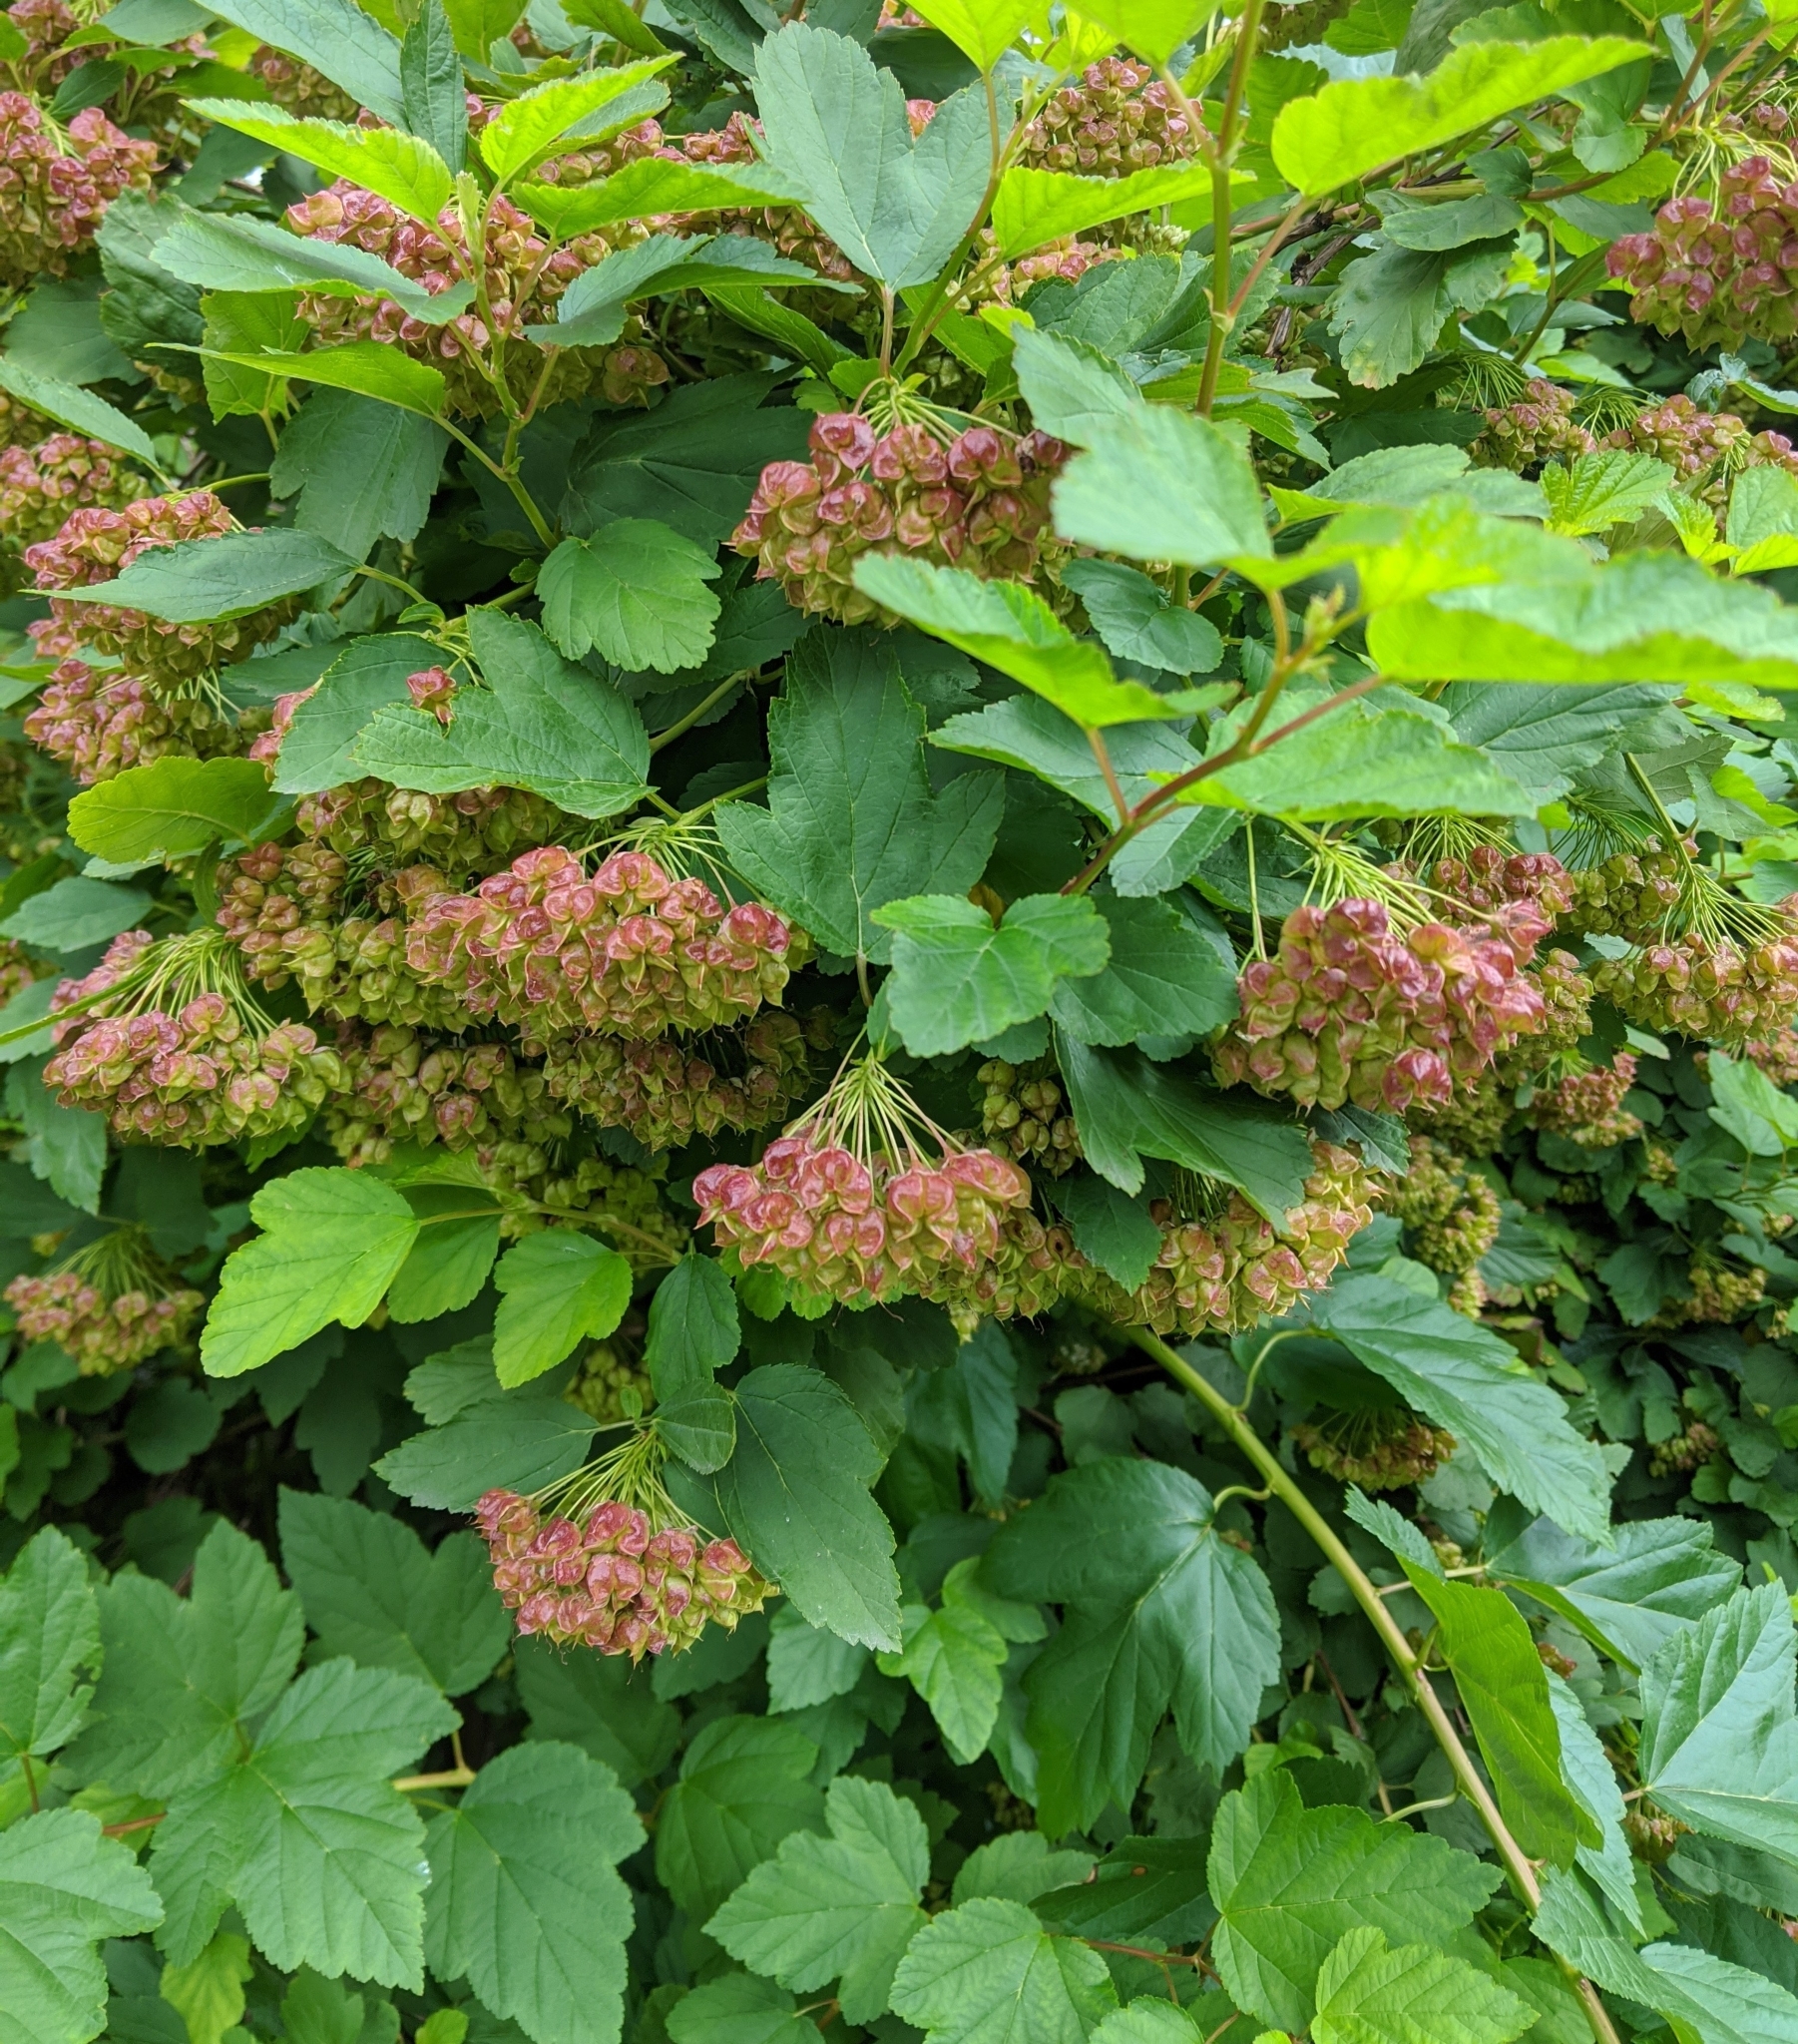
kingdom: Plantae
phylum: Tracheophyta
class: Magnoliopsida
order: Rosales
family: Rosaceae
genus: Physocarpus
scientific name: Physocarpus opulifolius
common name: Ninebark
